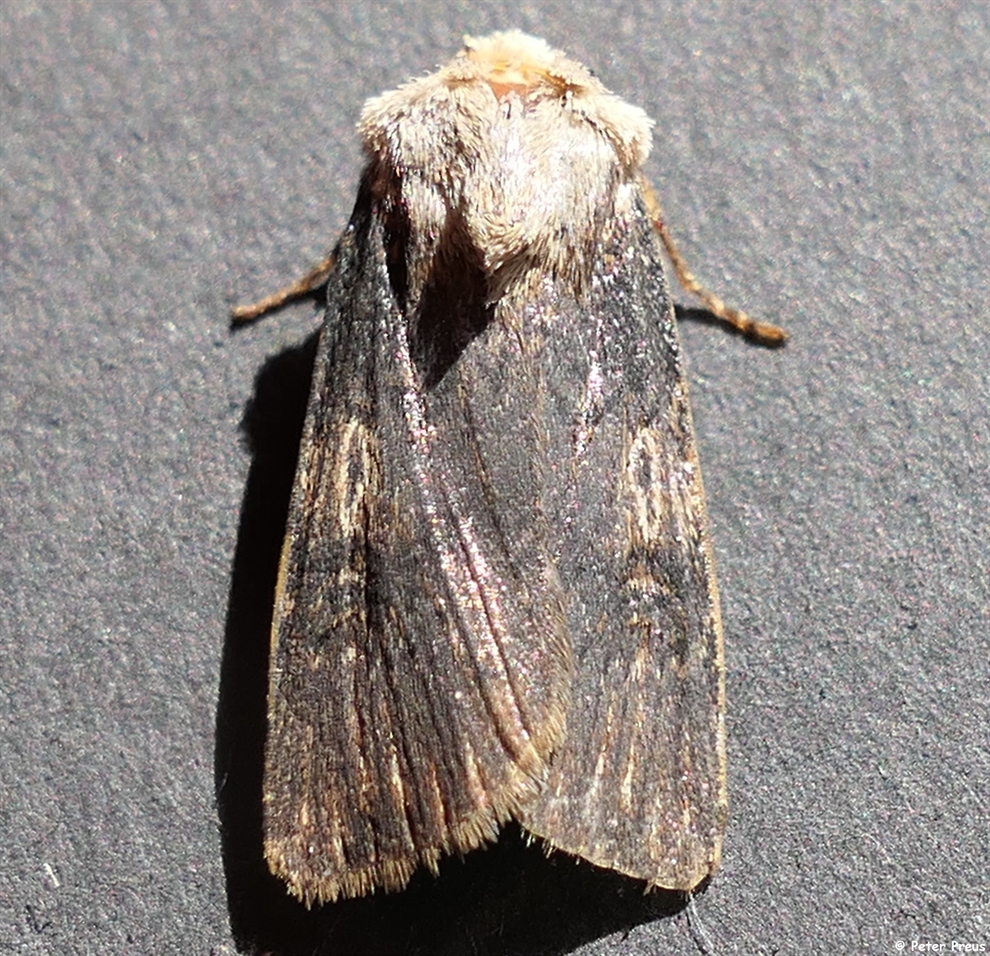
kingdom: Animalia
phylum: Arthropoda
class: Insecta
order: Lepidoptera
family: Noctuidae
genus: Agrotis
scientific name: Agrotis puta
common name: Shuttle-shaped dart
